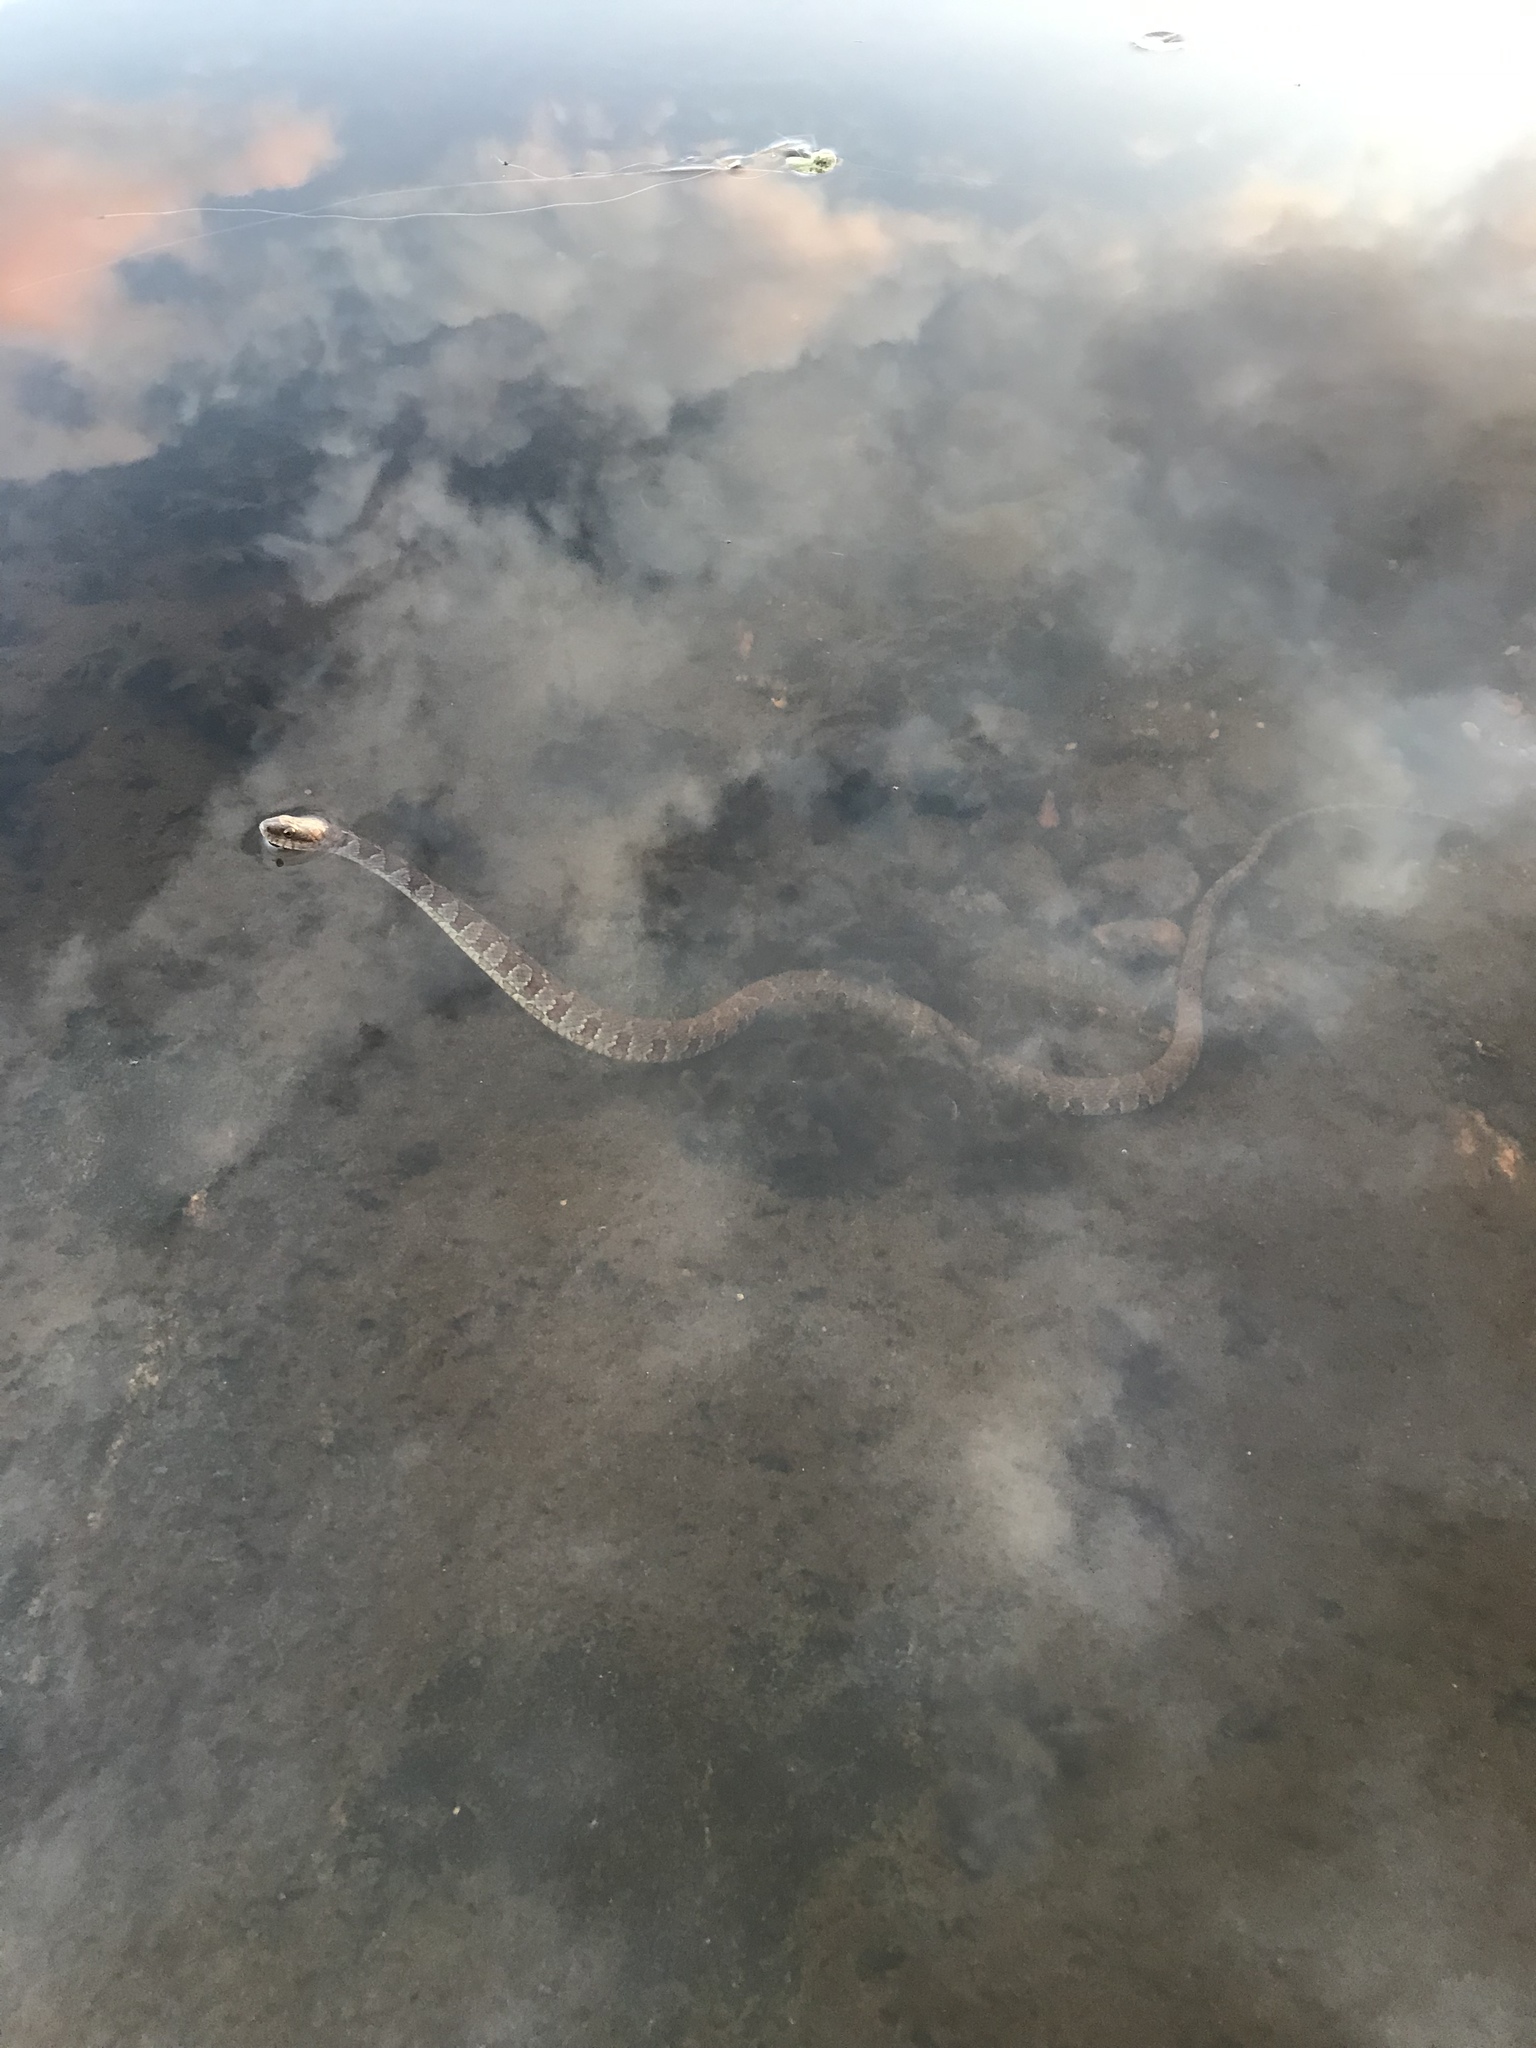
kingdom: Animalia
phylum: Chordata
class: Squamata
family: Colubridae
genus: Nerodia
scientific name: Nerodia sipedon
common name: Northern water snake
